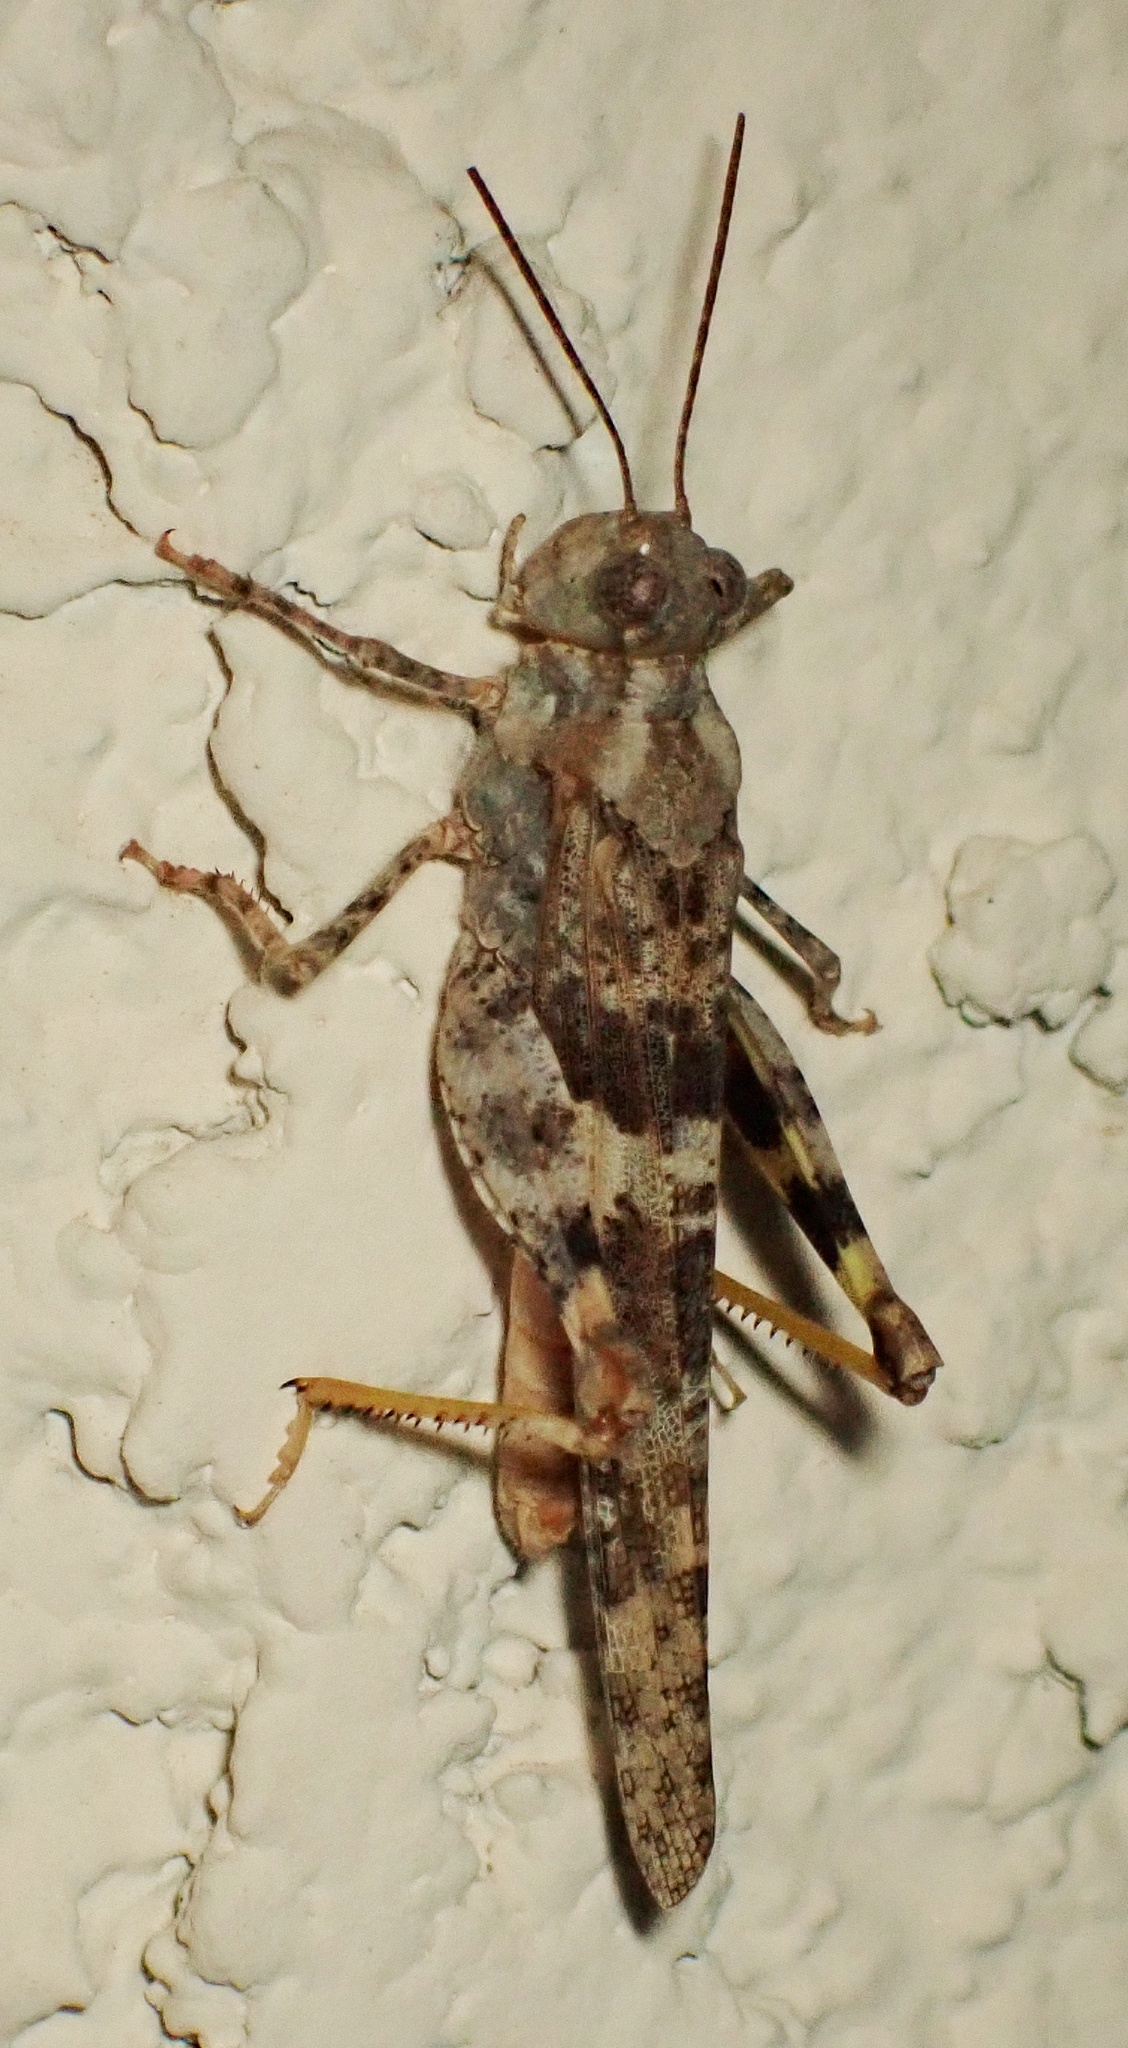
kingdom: Animalia
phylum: Arthropoda
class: Insecta
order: Orthoptera
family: Acrididae
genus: Trimerotropis
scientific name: Trimerotropis pallidipennis
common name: Pallid-winged grasshopper
